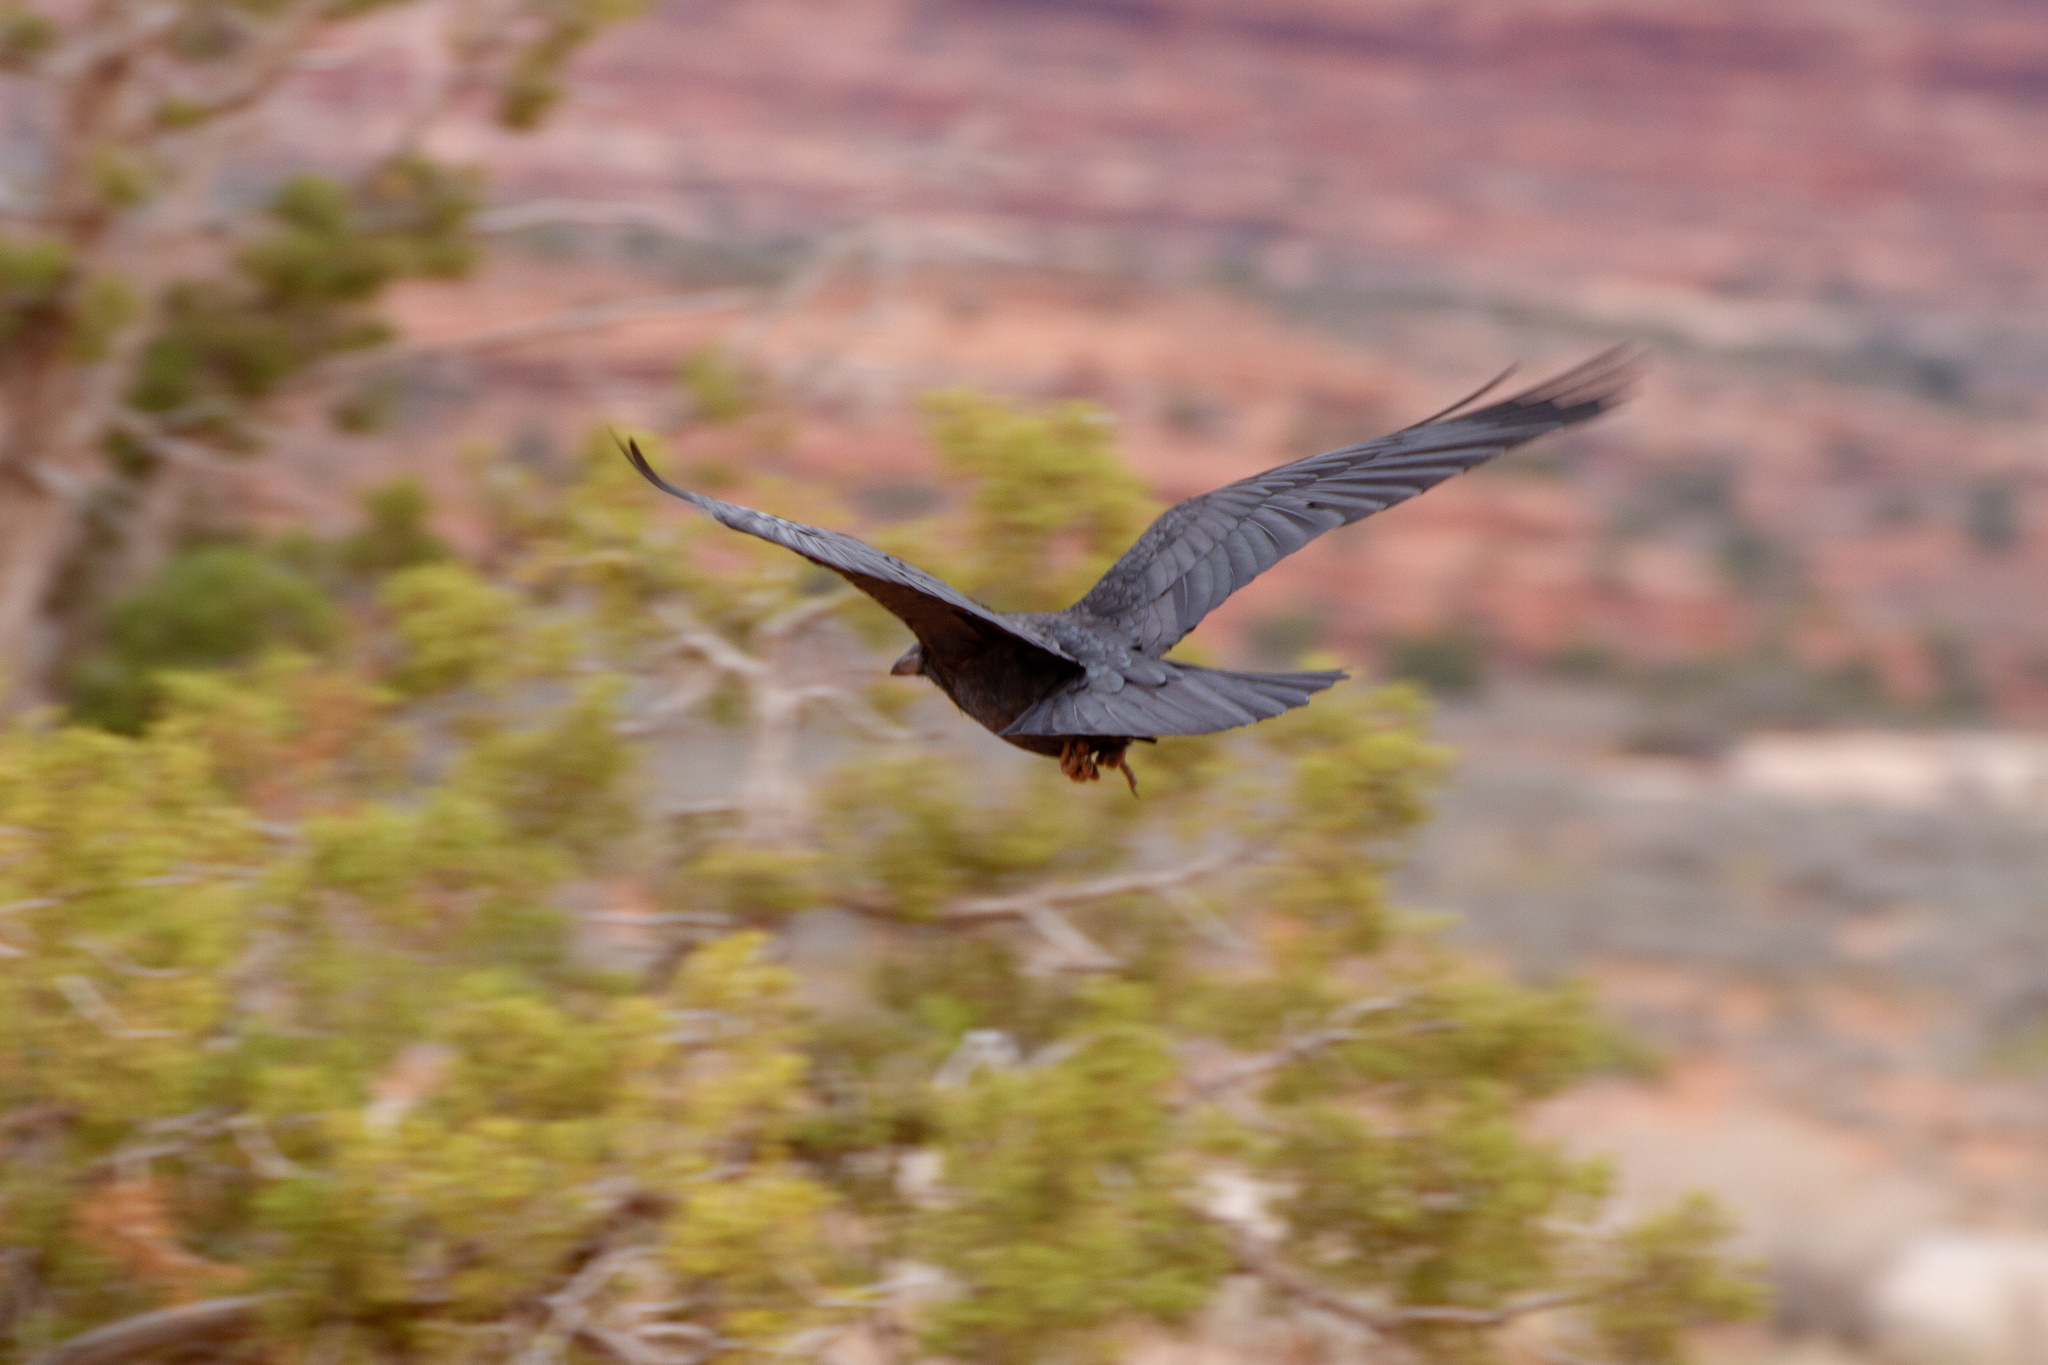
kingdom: Animalia
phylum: Chordata
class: Aves
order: Passeriformes
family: Corvidae
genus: Corvus
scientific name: Corvus corax
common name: Common raven
